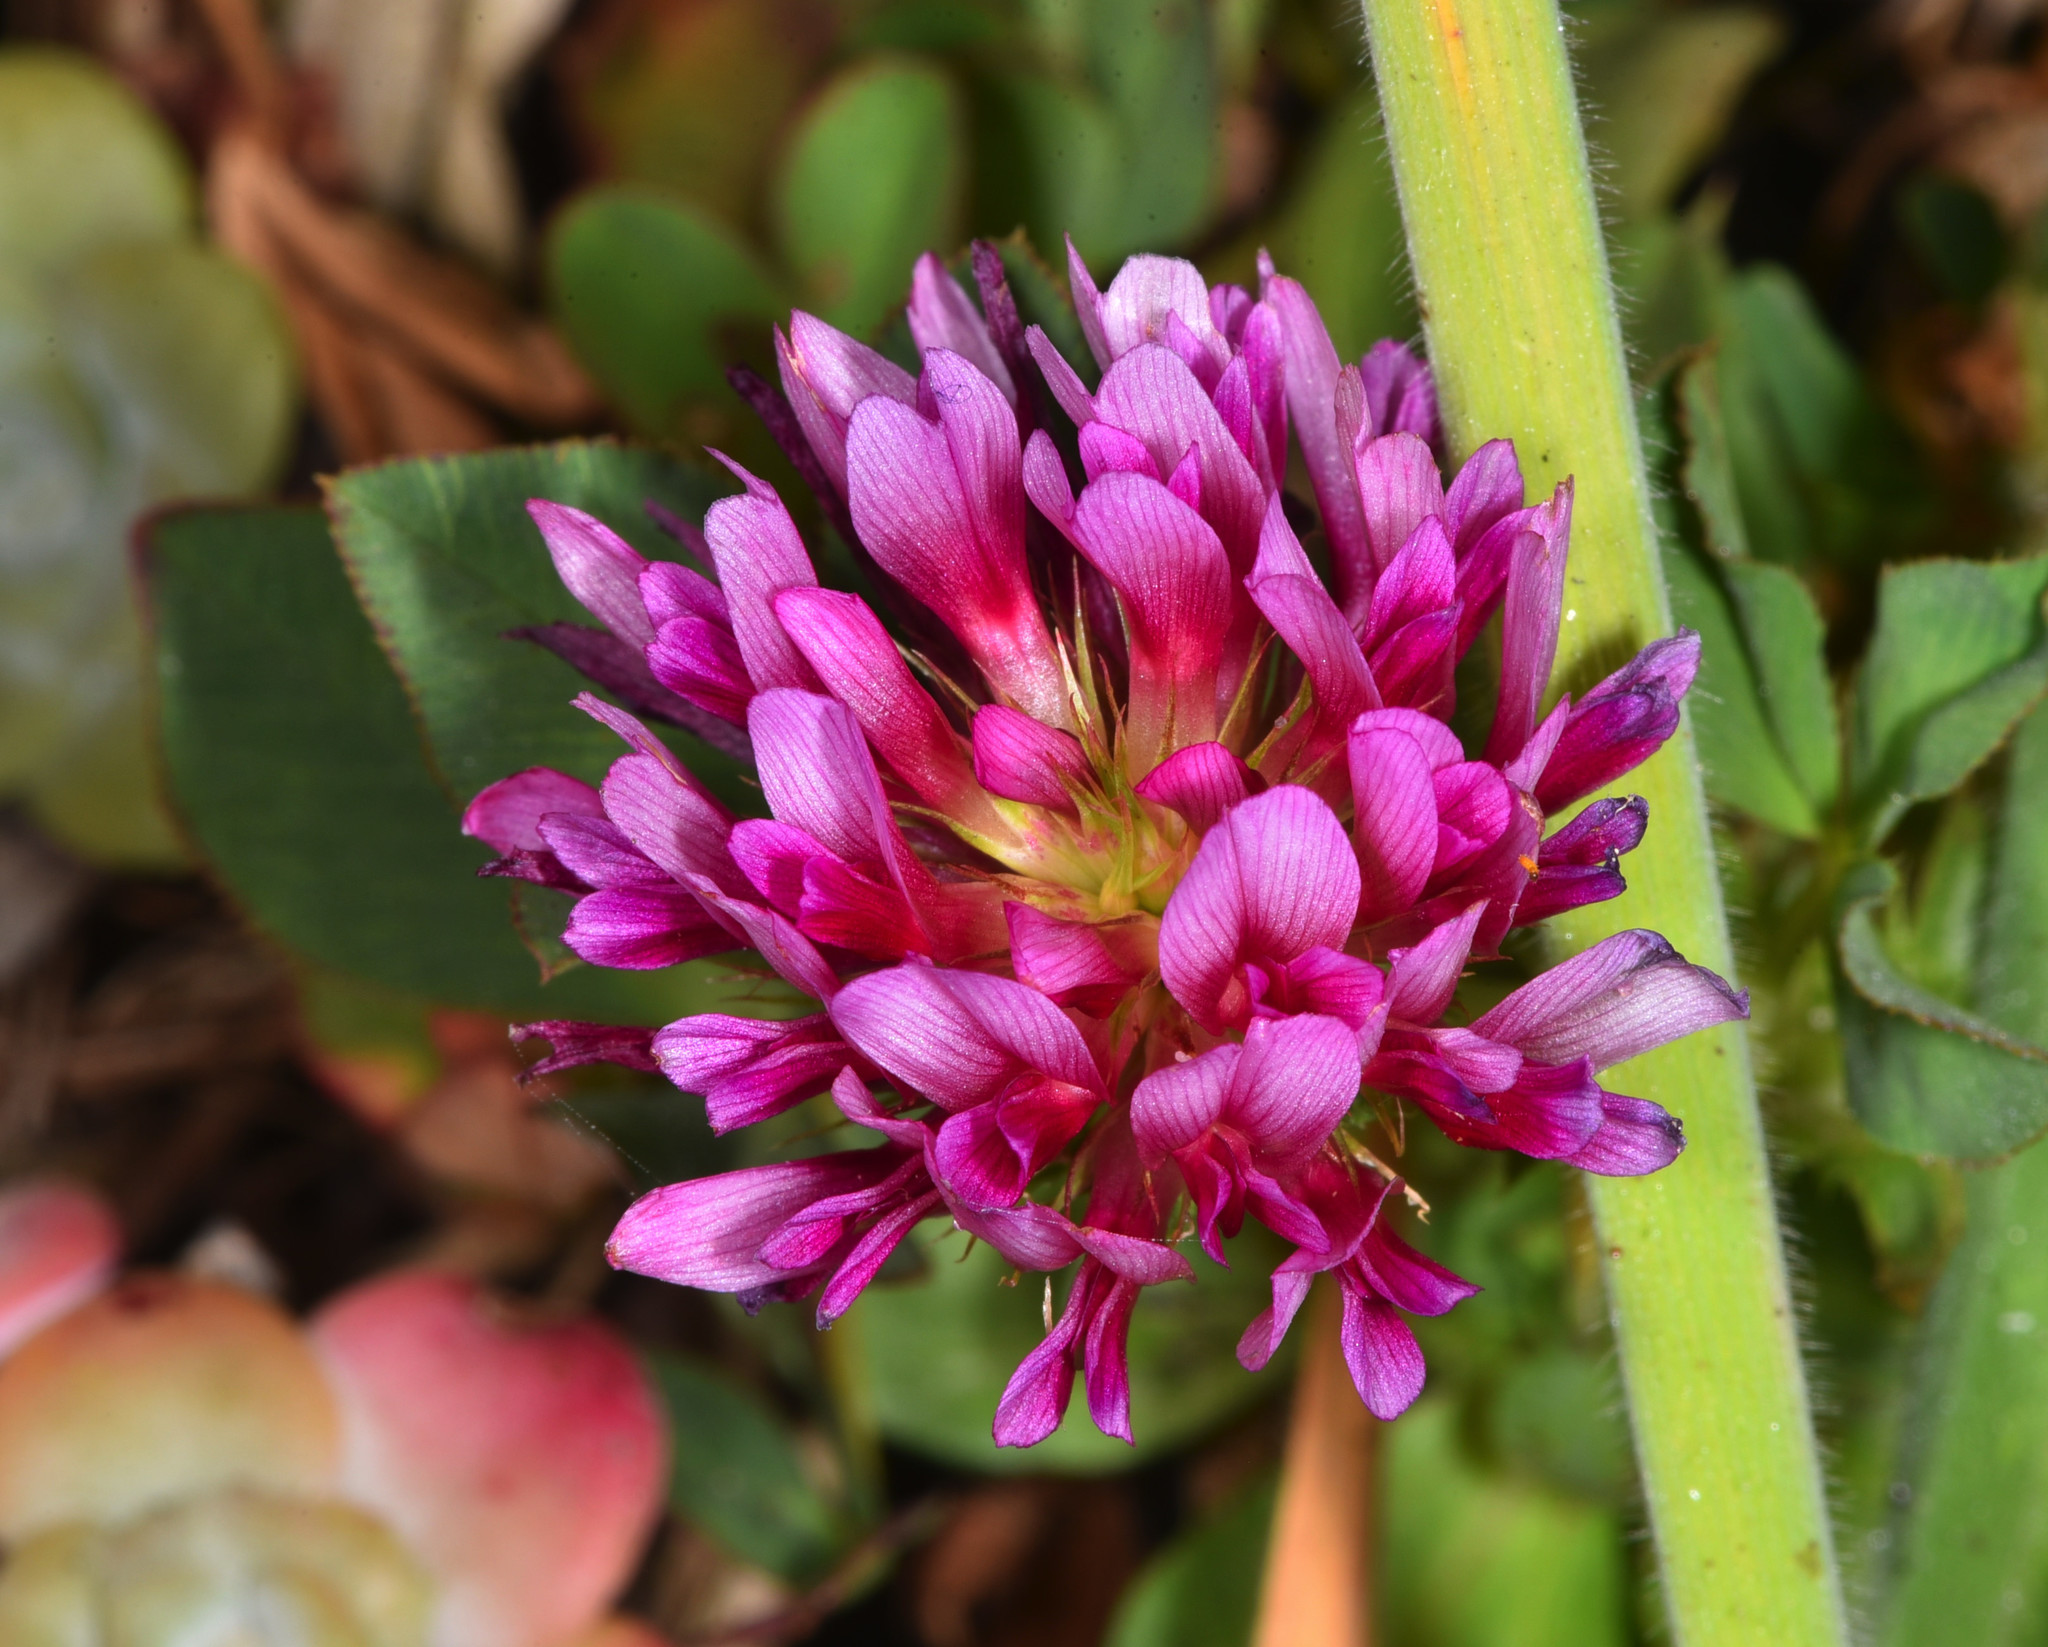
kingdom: Plantae
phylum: Tracheophyta
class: Magnoliopsida
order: Fabales
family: Fabaceae
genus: Trifolium
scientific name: Trifolium wormskioldii
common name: Springbank clover
